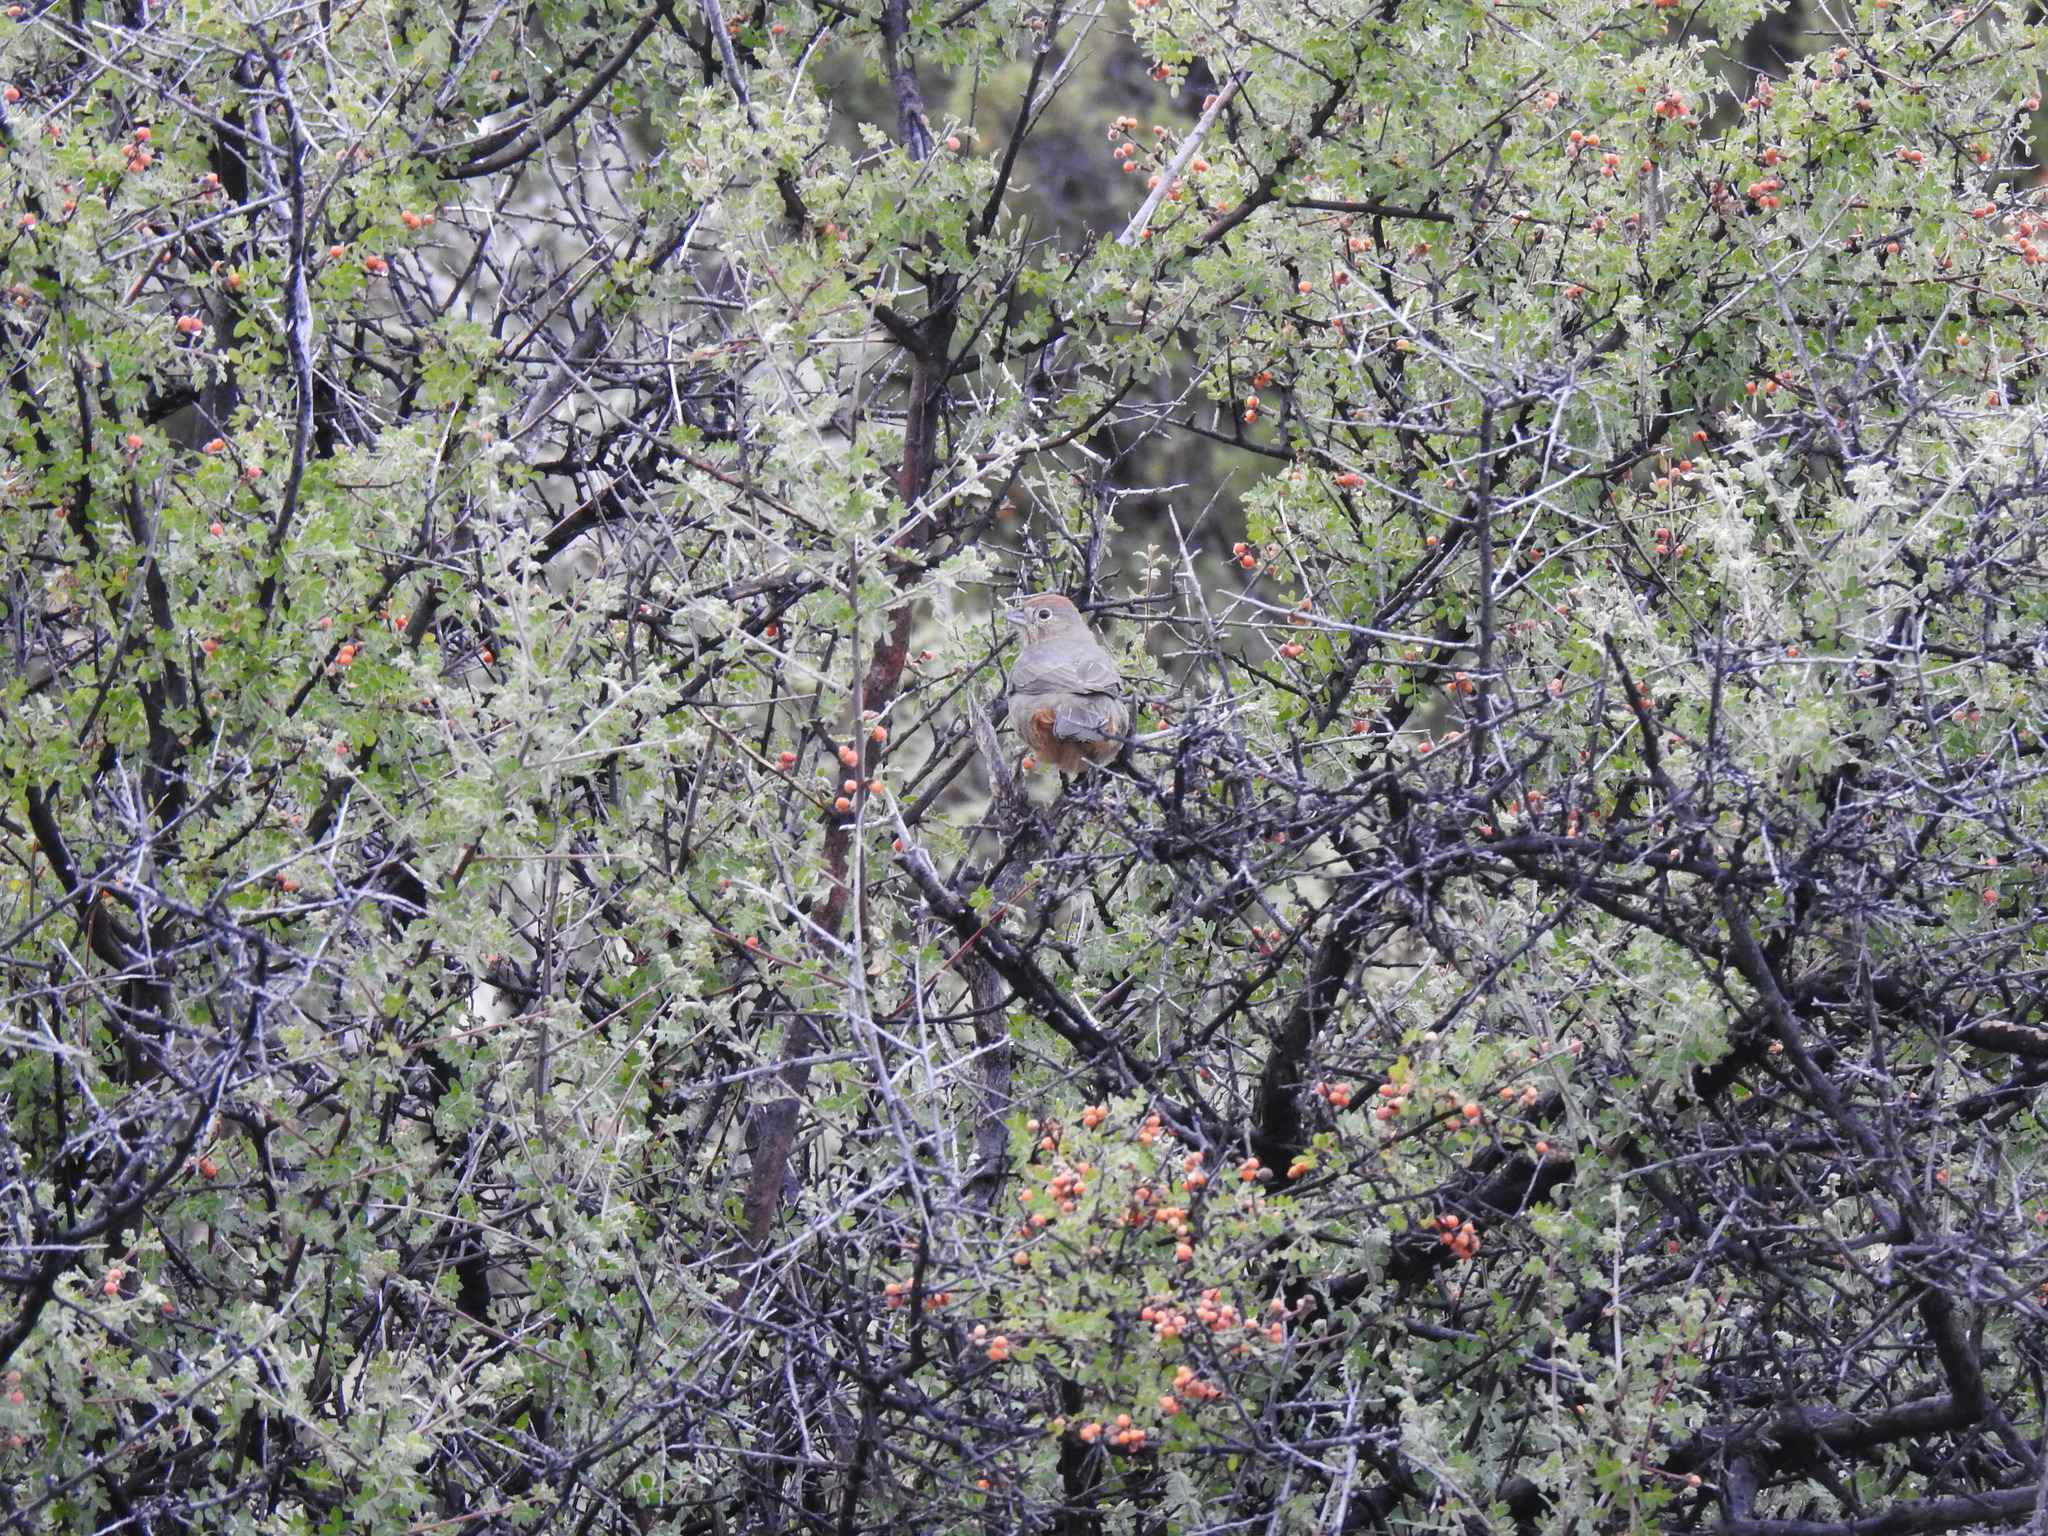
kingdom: Animalia
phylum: Chordata
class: Aves
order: Passeriformes
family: Passerellidae
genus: Melozone
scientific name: Melozone fusca
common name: Canyon towhee
